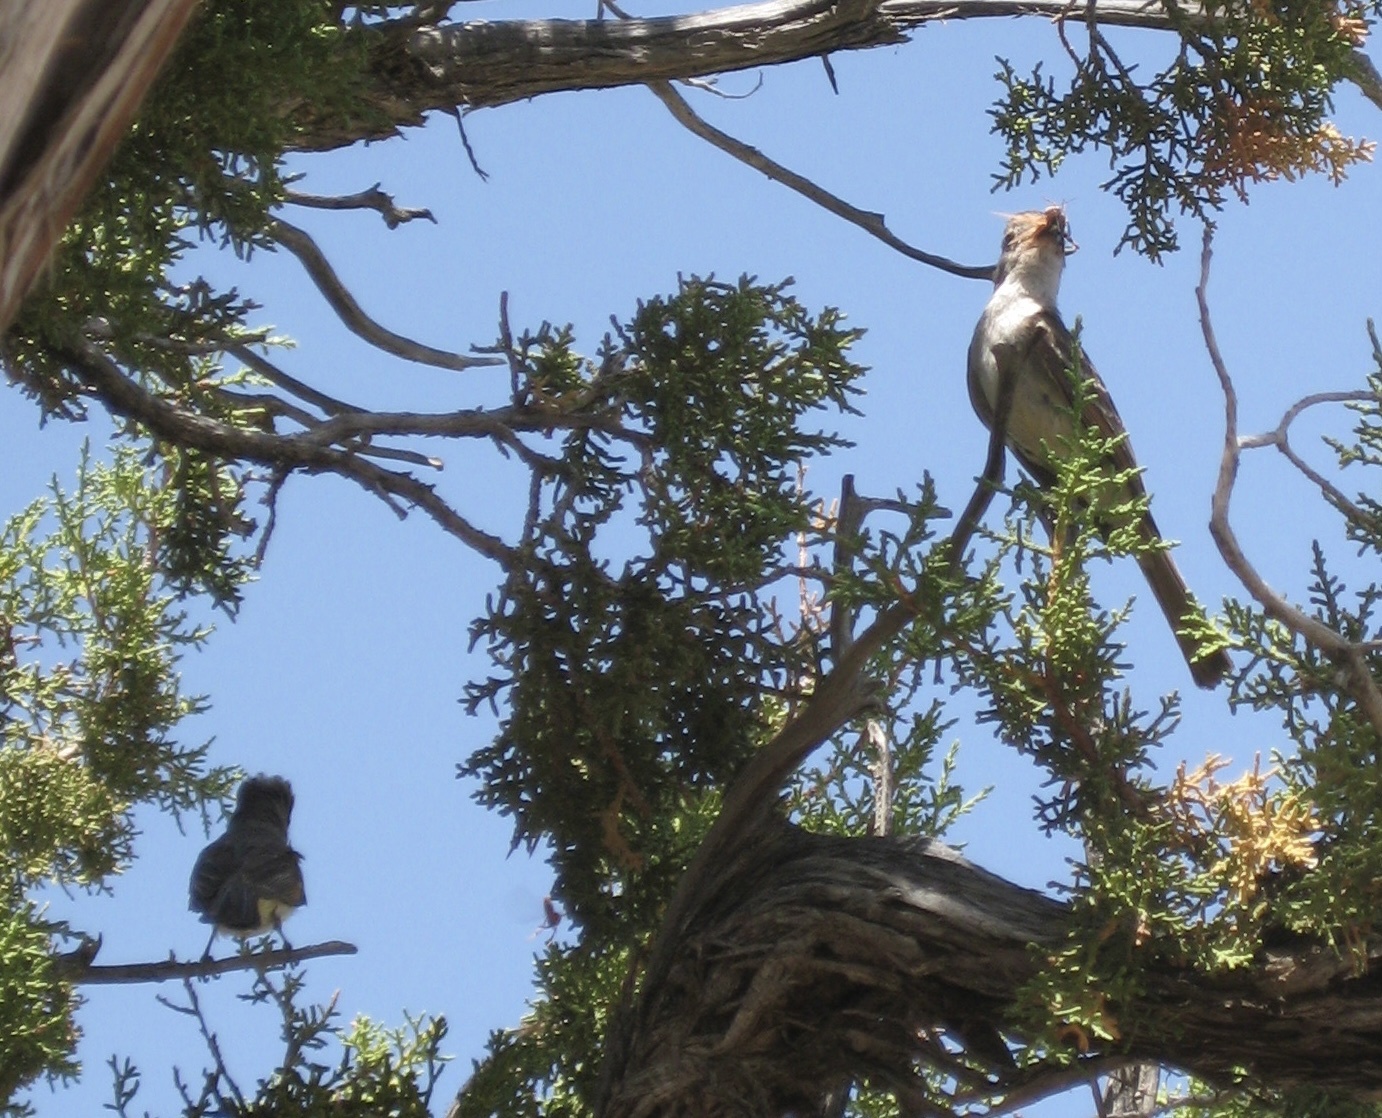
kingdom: Animalia
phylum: Chordata
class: Aves
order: Passeriformes
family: Tyrannidae
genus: Myiarchus
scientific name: Myiarchus cinerascens
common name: Ash-throated flycatcher
